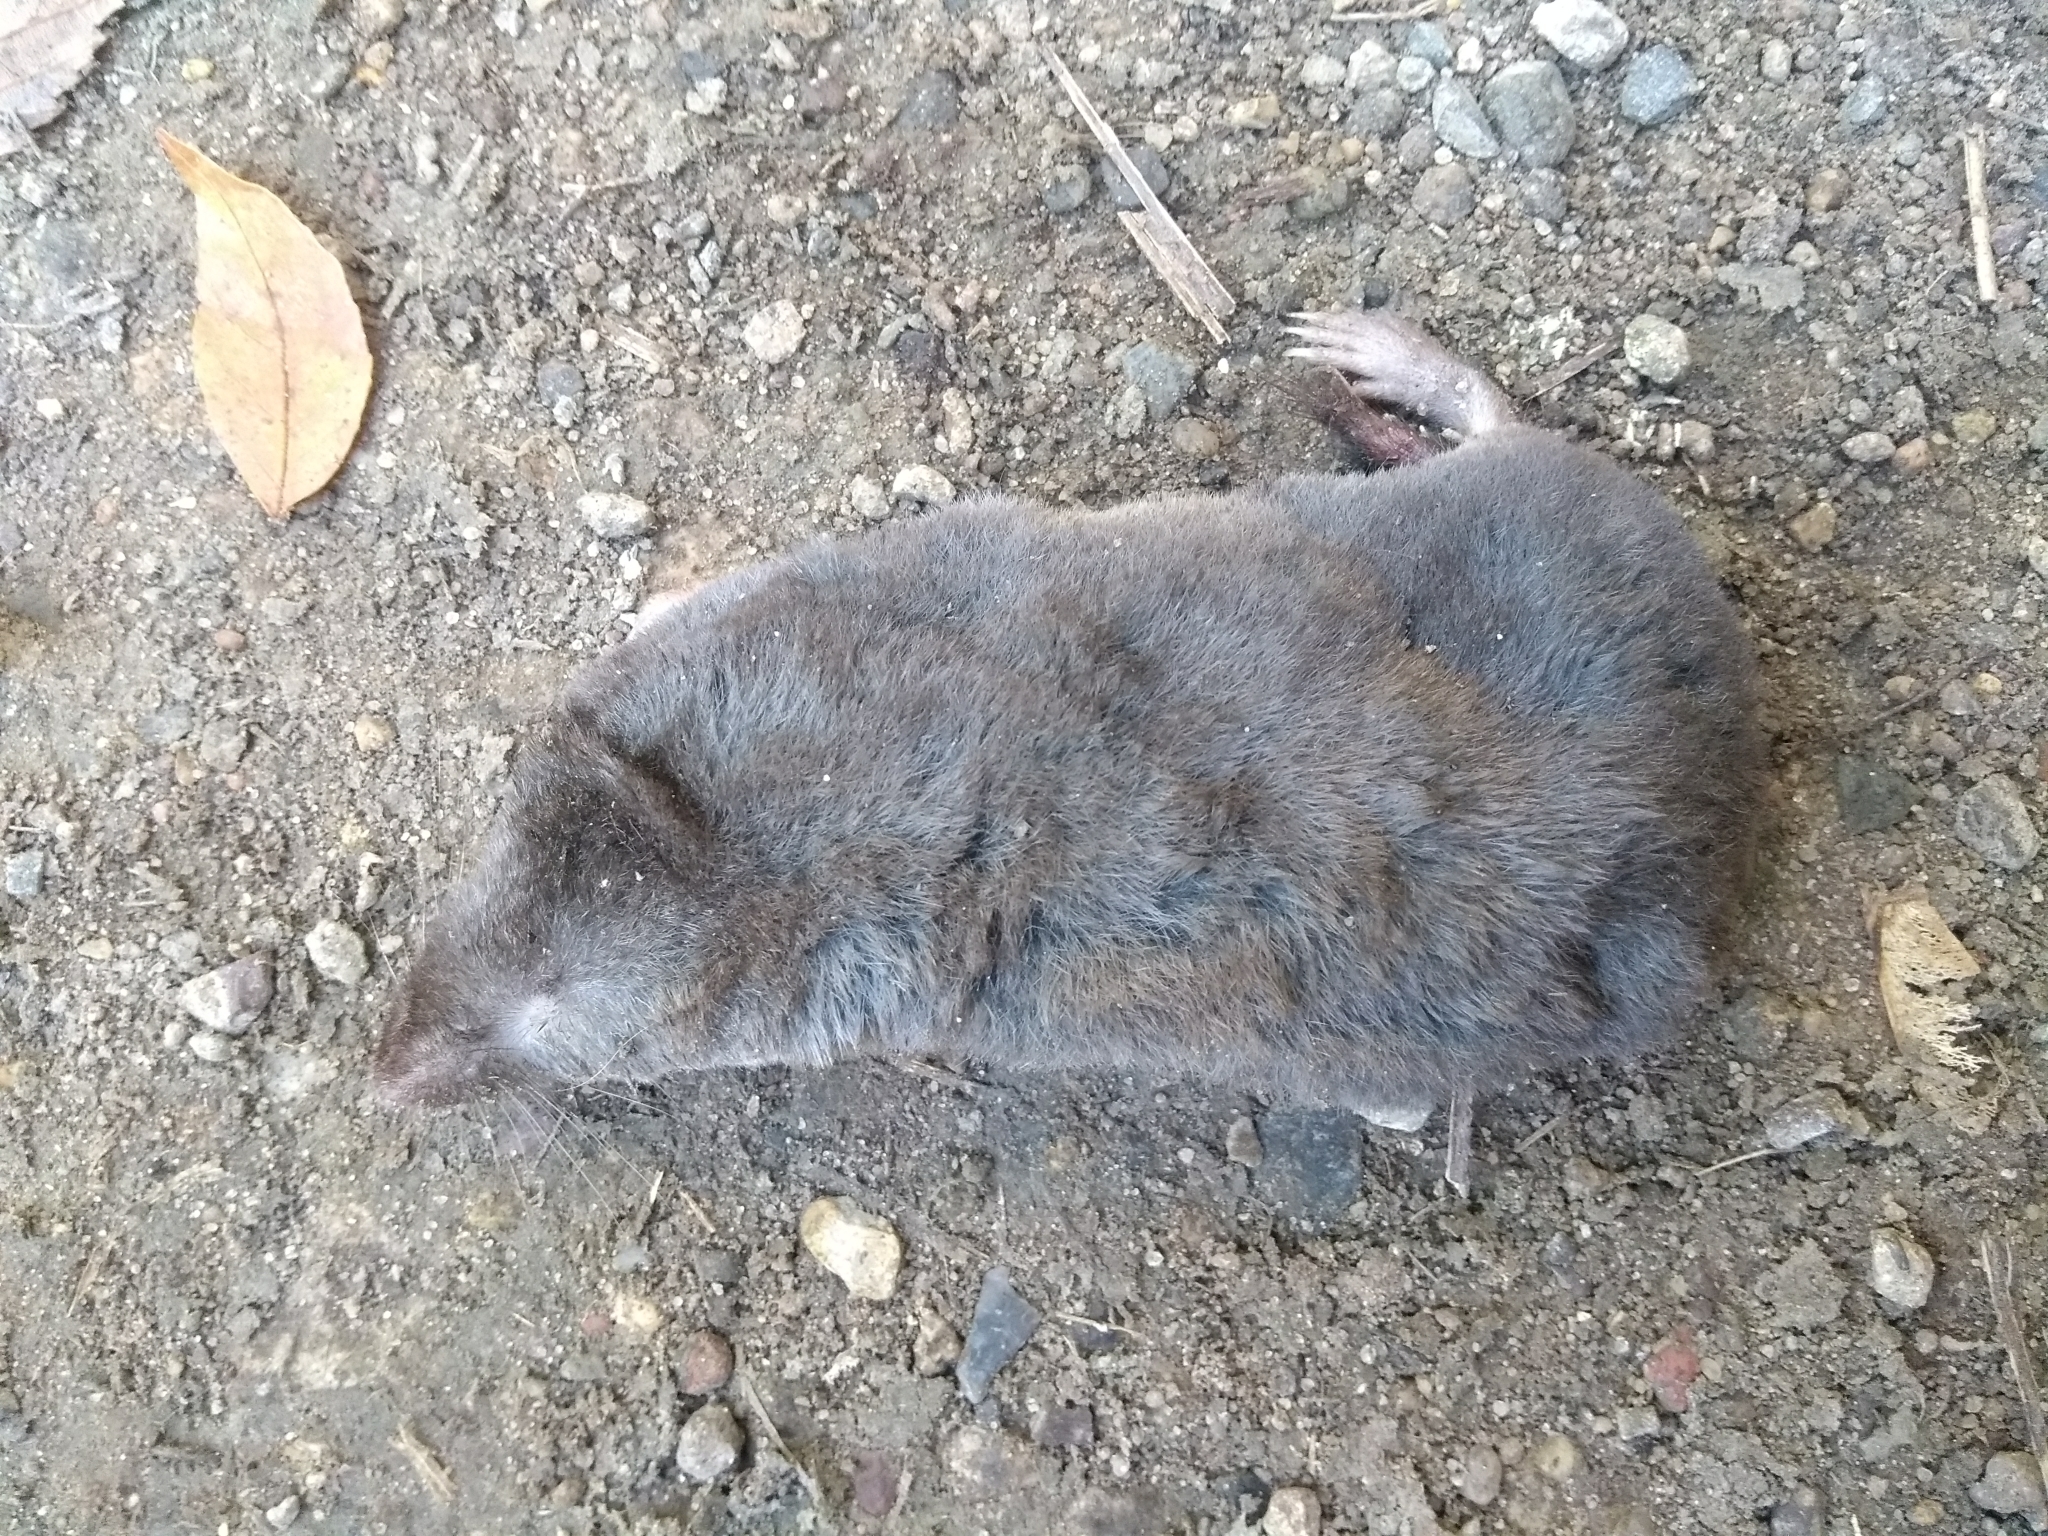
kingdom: Animalia
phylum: Chordata
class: Mammalia
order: Soricomorpha
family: Soricidae
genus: Blarina
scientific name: Blarina brevicauda
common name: Northern short-tailed shrew
